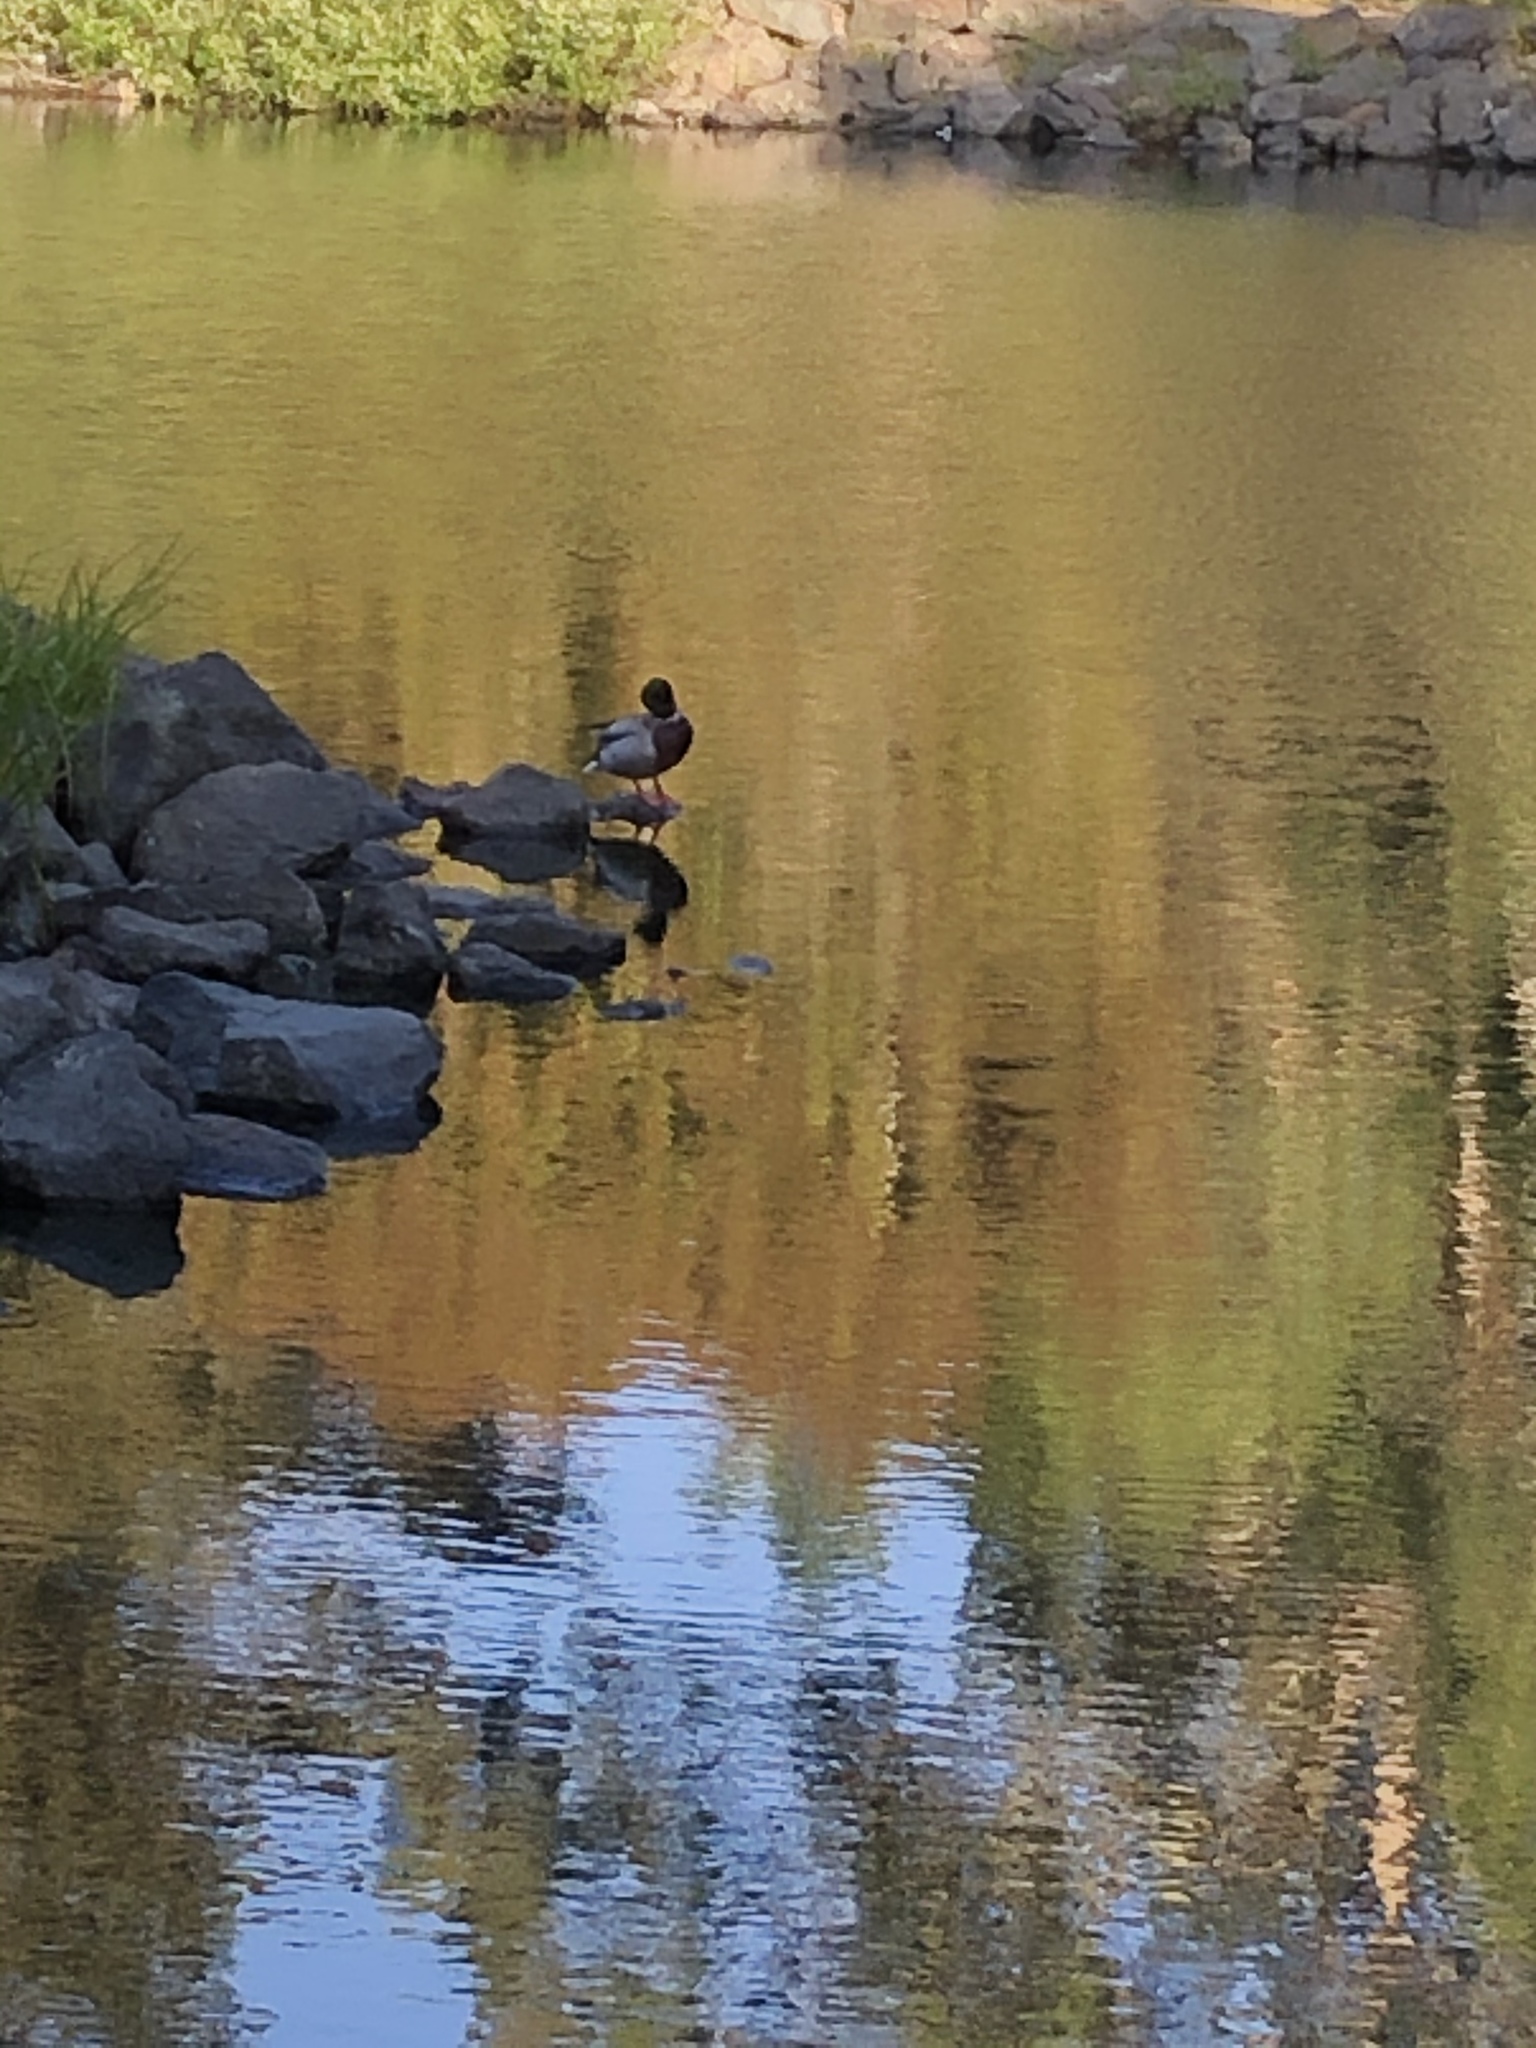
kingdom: Animalia
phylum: Chordata
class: Aves
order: Anseriformes
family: Anatidae
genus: Anas
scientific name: Anas platyrhynchos
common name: Mallard
